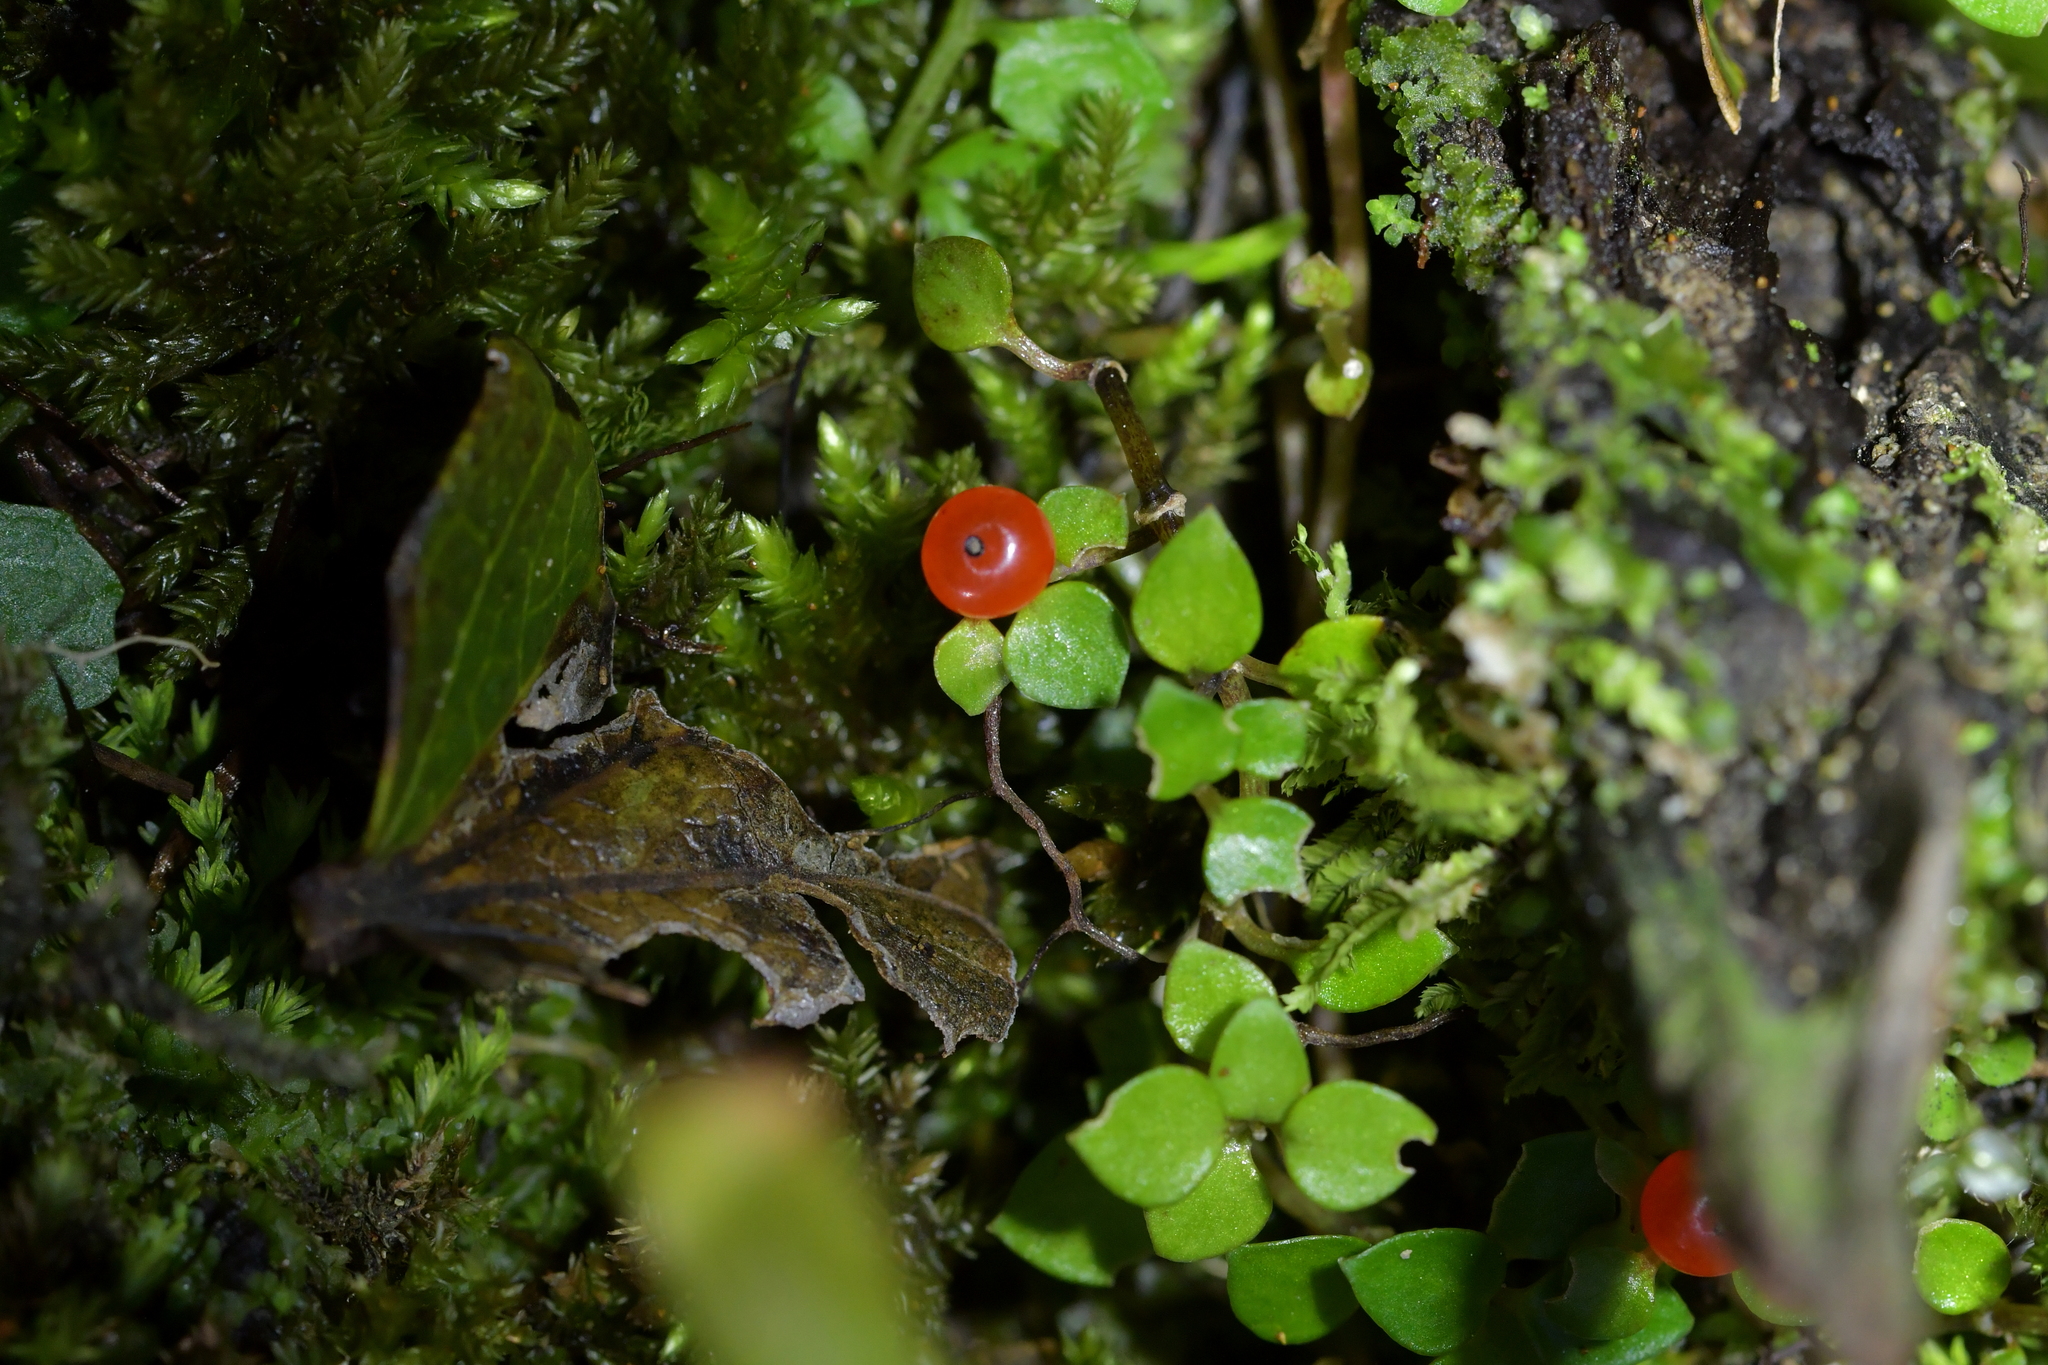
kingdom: Plantae
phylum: Tracheophyta
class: Magnoliopsida
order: Gentianales
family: Rubiaceae
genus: Nertera
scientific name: Nertera granadensis
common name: Beadplant
